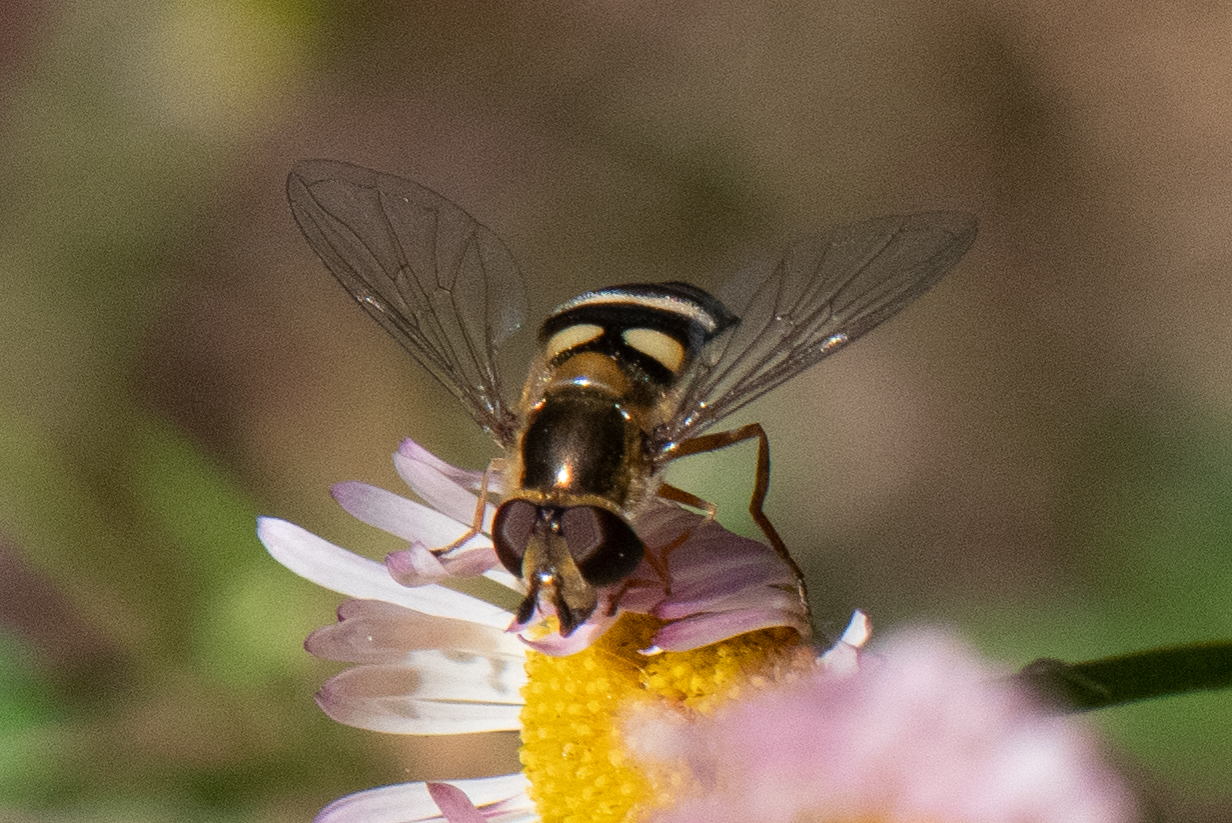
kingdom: Animalia
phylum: Arthropoda
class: Insecta
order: Diptera
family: Syrphidae
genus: Eupeodes
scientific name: Eupeodes fumipennis
